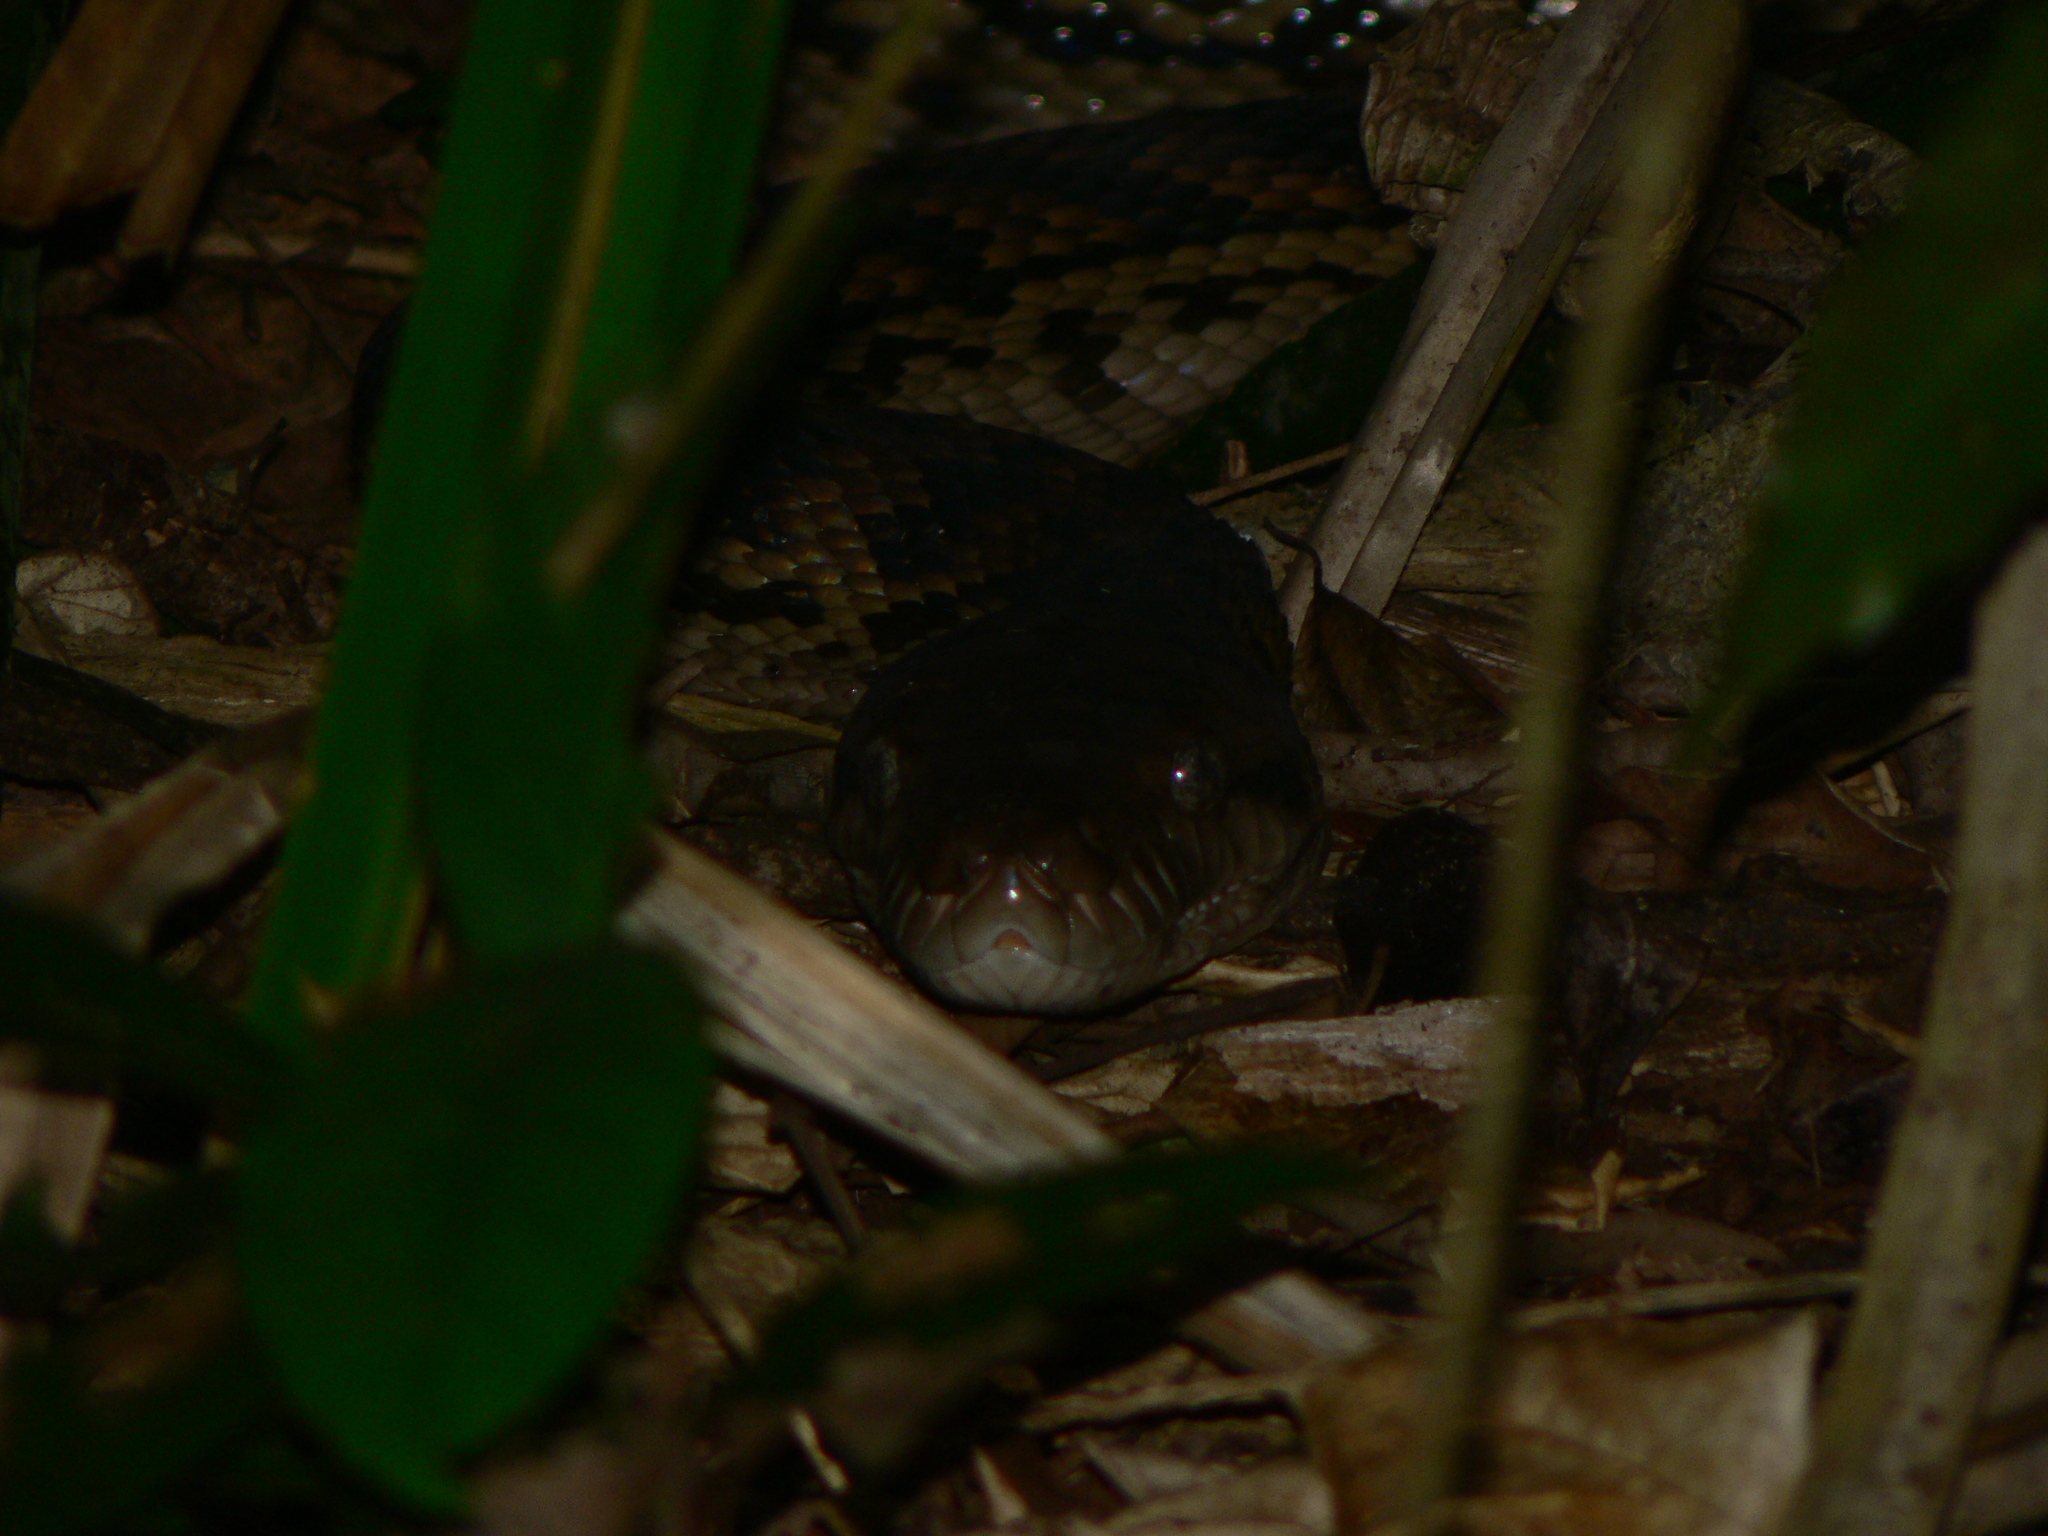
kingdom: Animalia
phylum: Chordata
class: Squamata
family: Pythonidae
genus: Simalia
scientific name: Simalia kinghorni
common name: Scrub python
